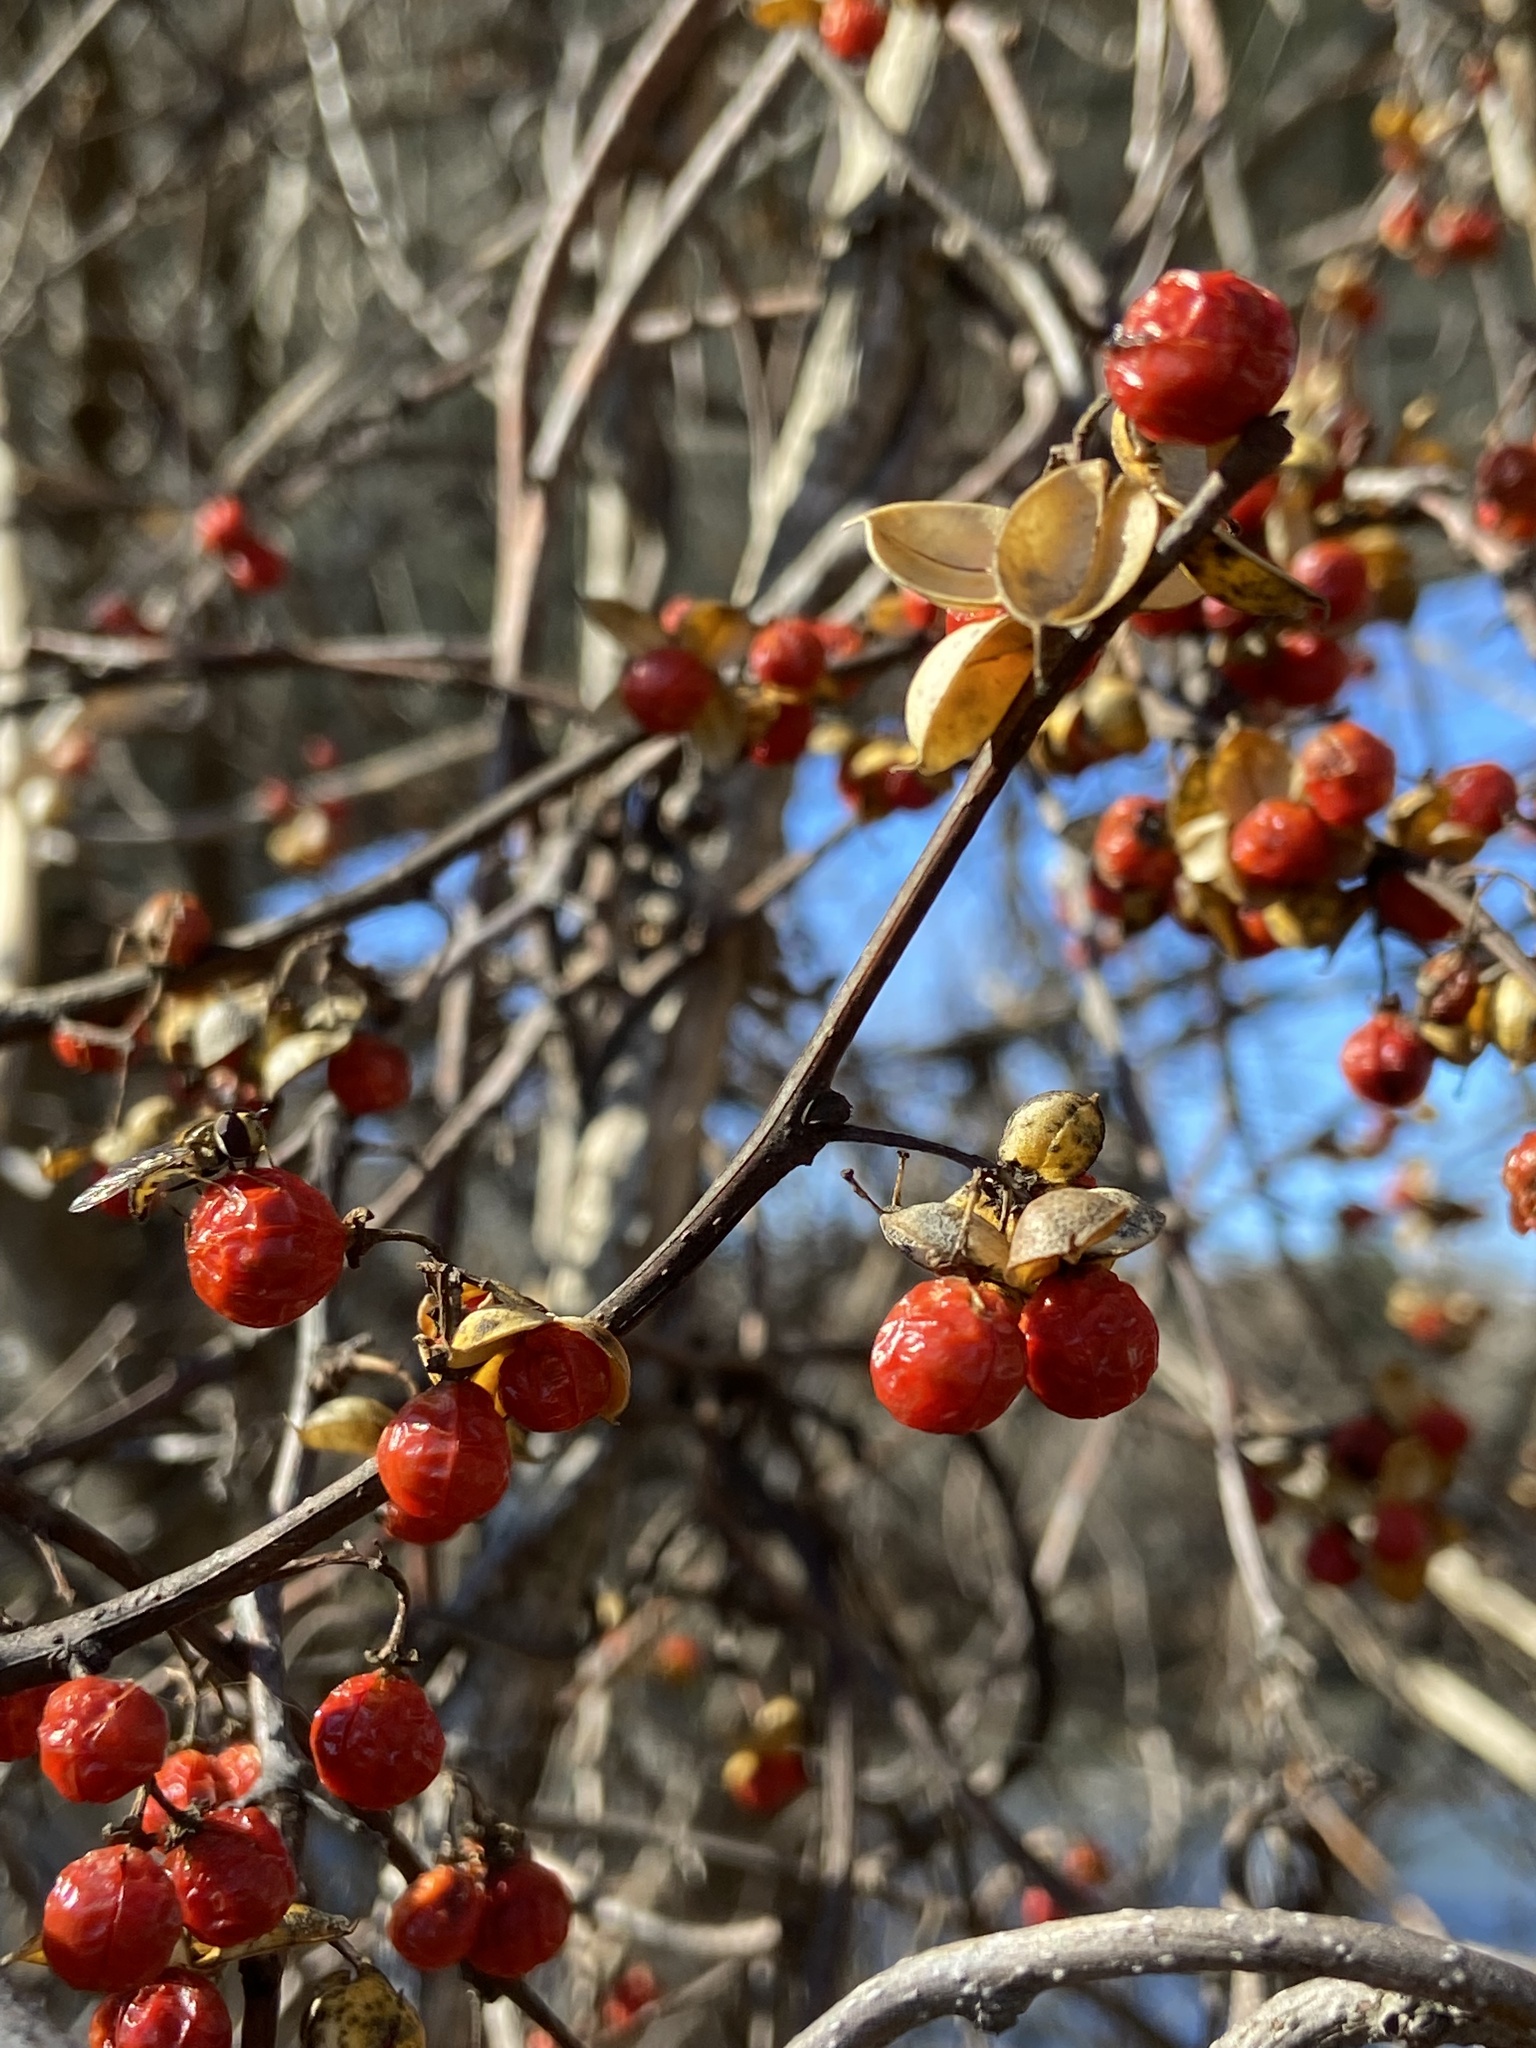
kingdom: Plantae
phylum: Tracheophyta
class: Magnoliopsida
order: Celastrales
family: Celastraceae
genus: Celastrus
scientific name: Celastrus orbiculatus
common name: Oriental bittersweet
